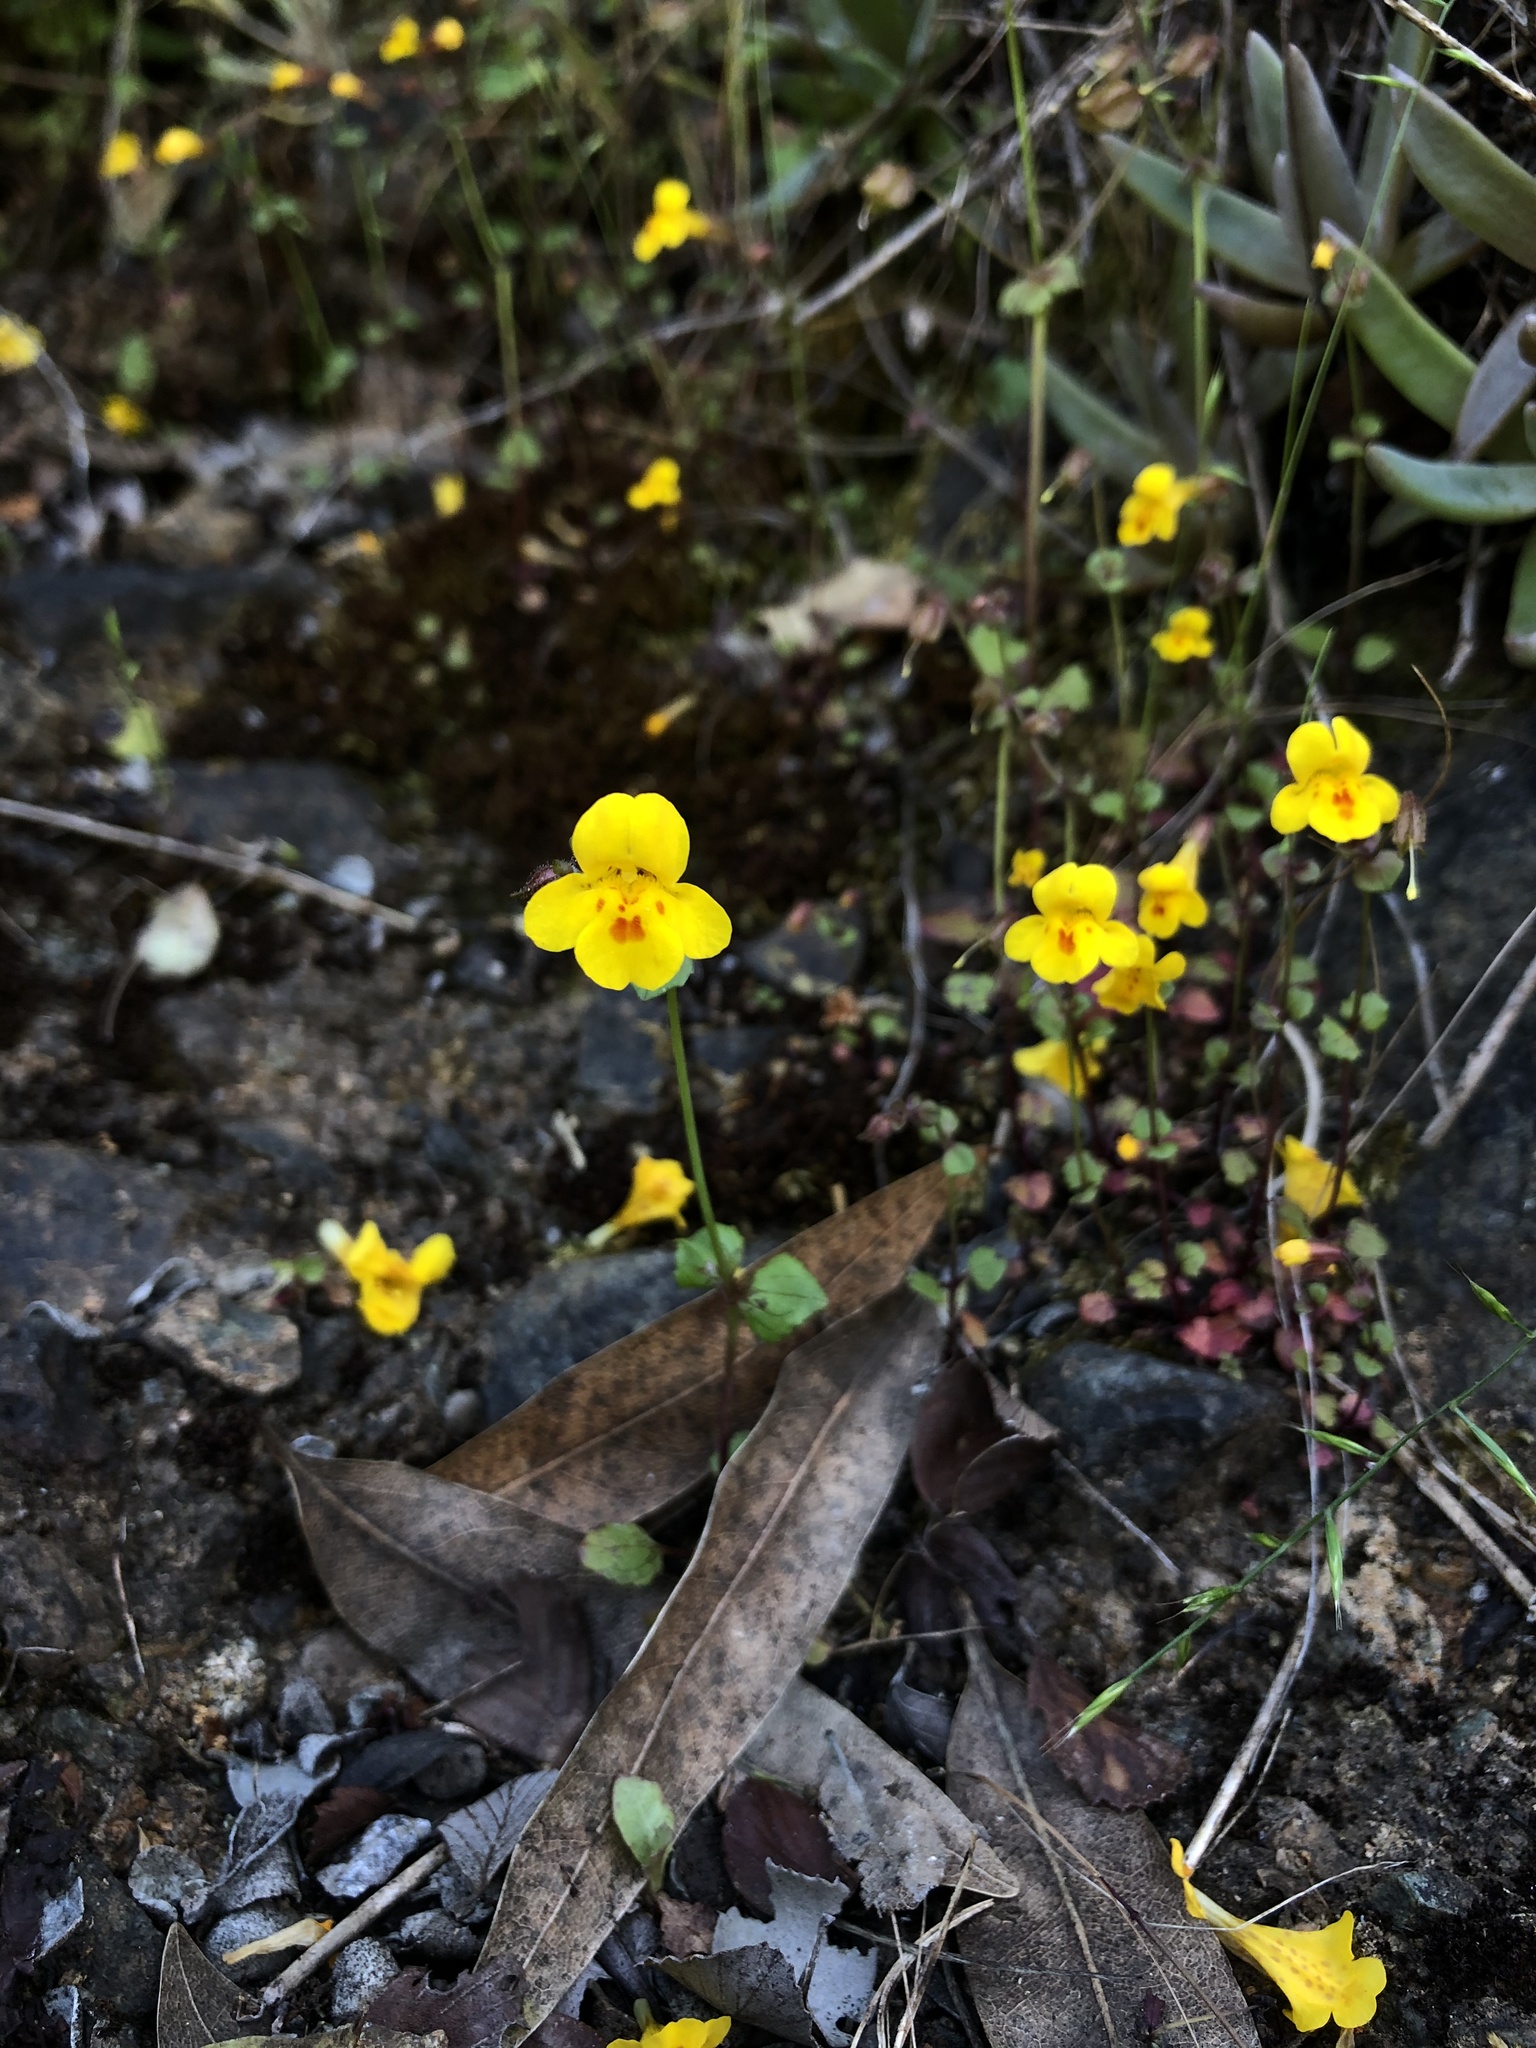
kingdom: Plantae
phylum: Tracheophyta
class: Magnoliopsida
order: Lamiales
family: Phrymaceae
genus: Erythranthe
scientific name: Erythranthe serpentinicola
